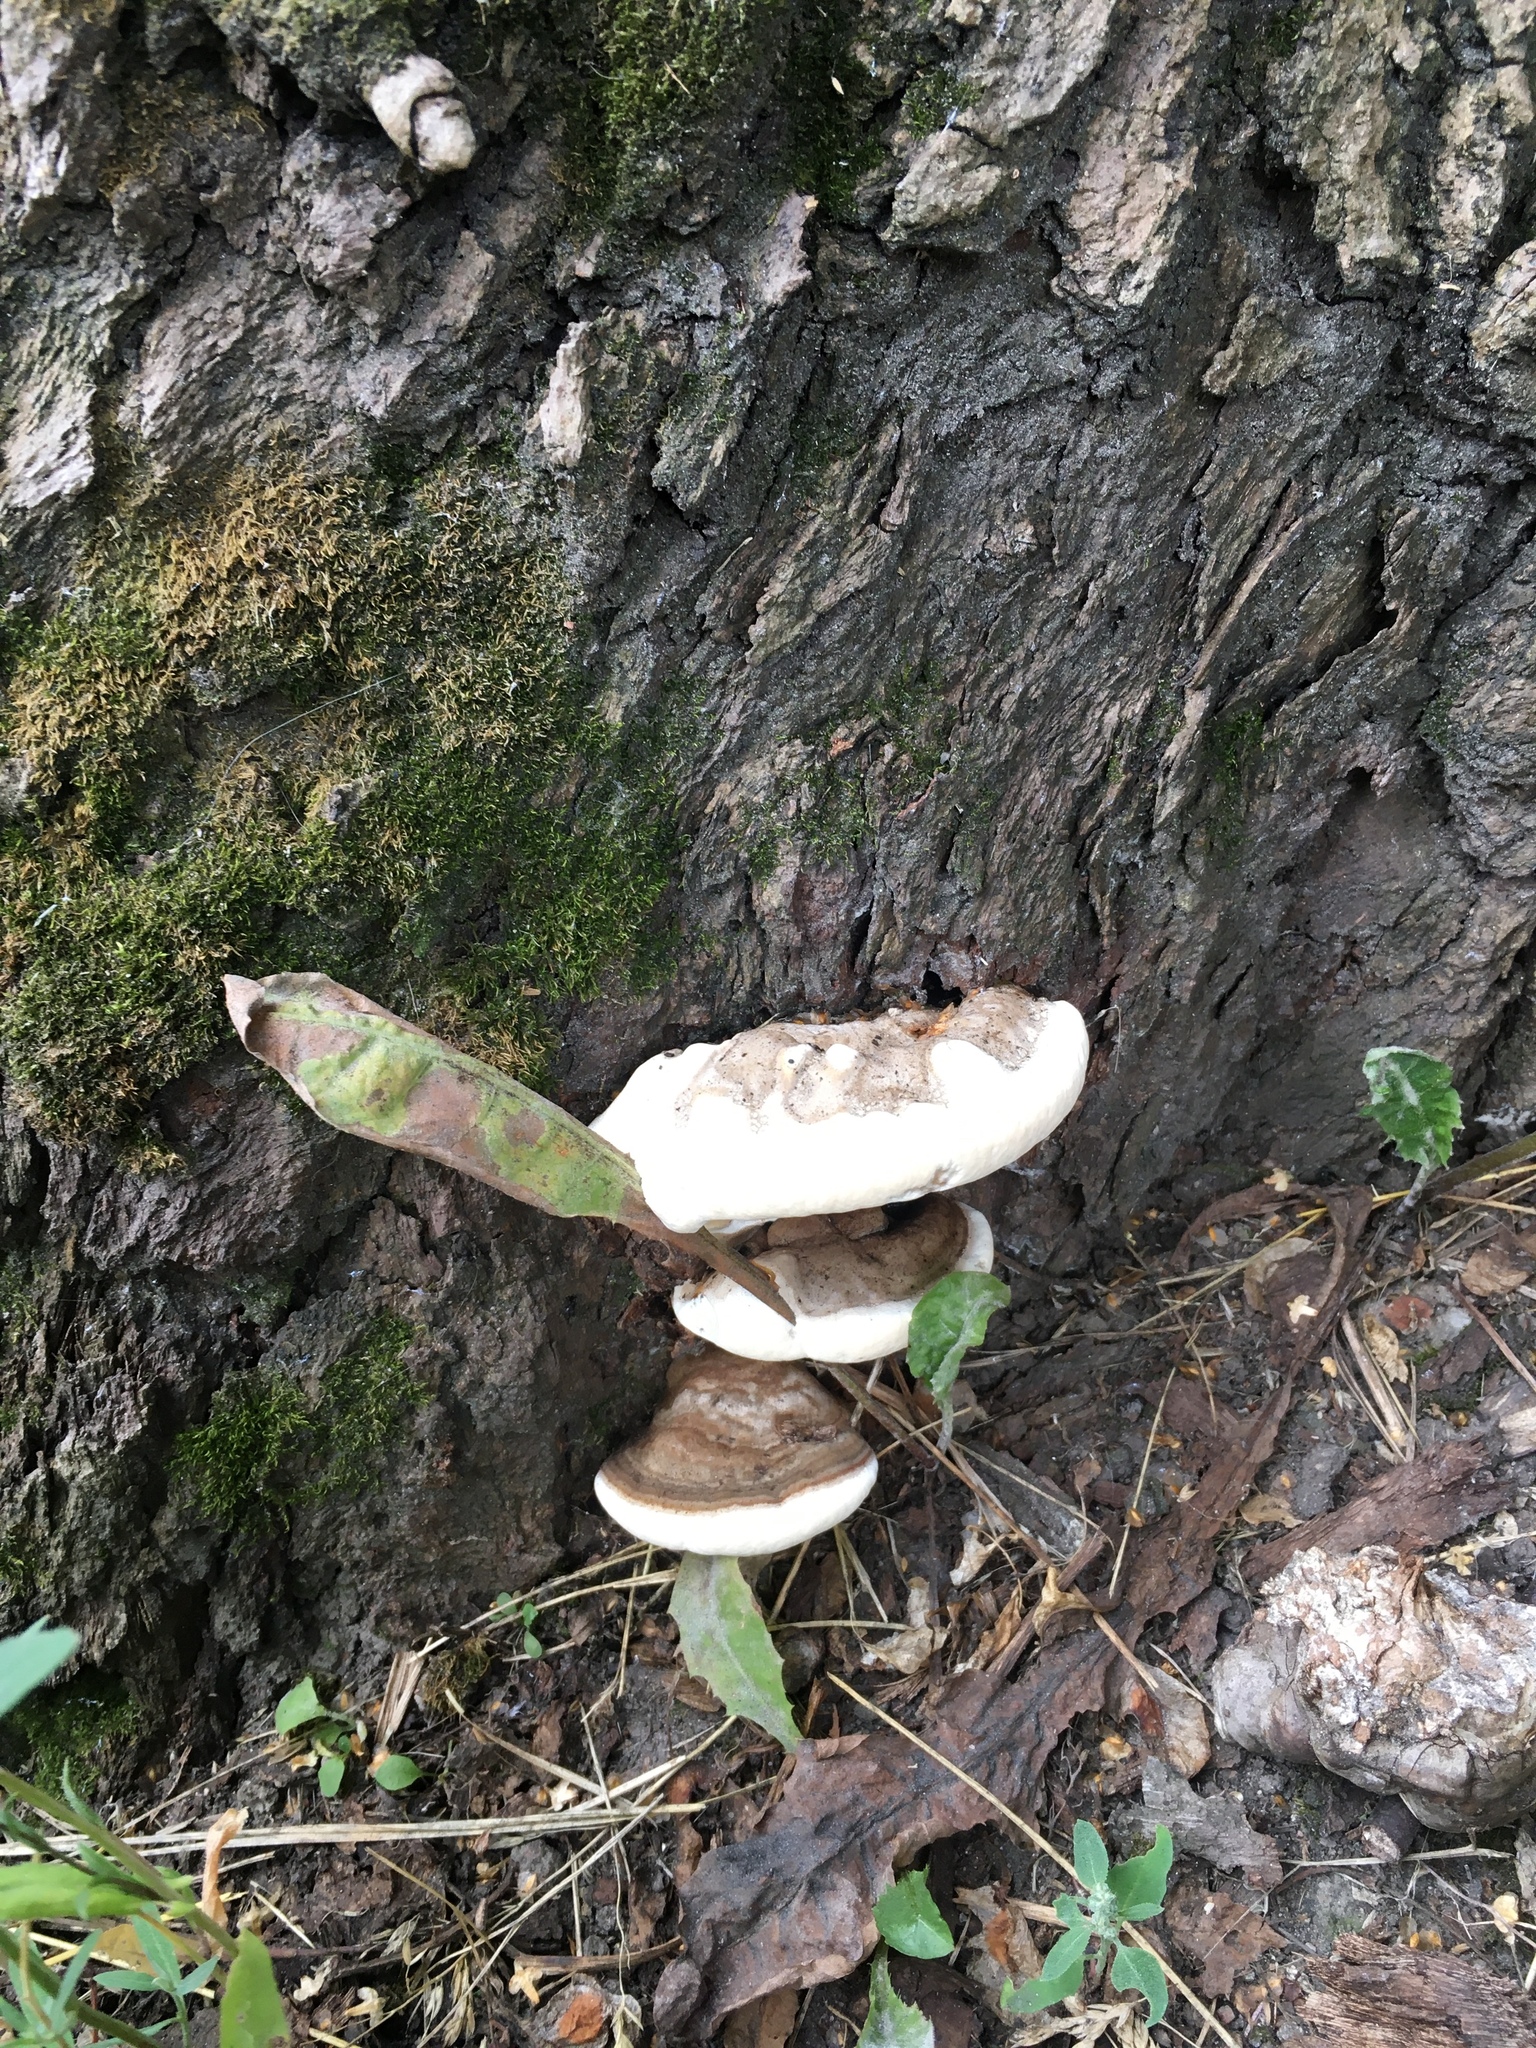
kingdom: Fungi
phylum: Basidiomycota
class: Agaricomycetes
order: Polyporales
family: Polyporaceae
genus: Ganoderma
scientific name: Ganoderma applanatum
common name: Artist's bracket
